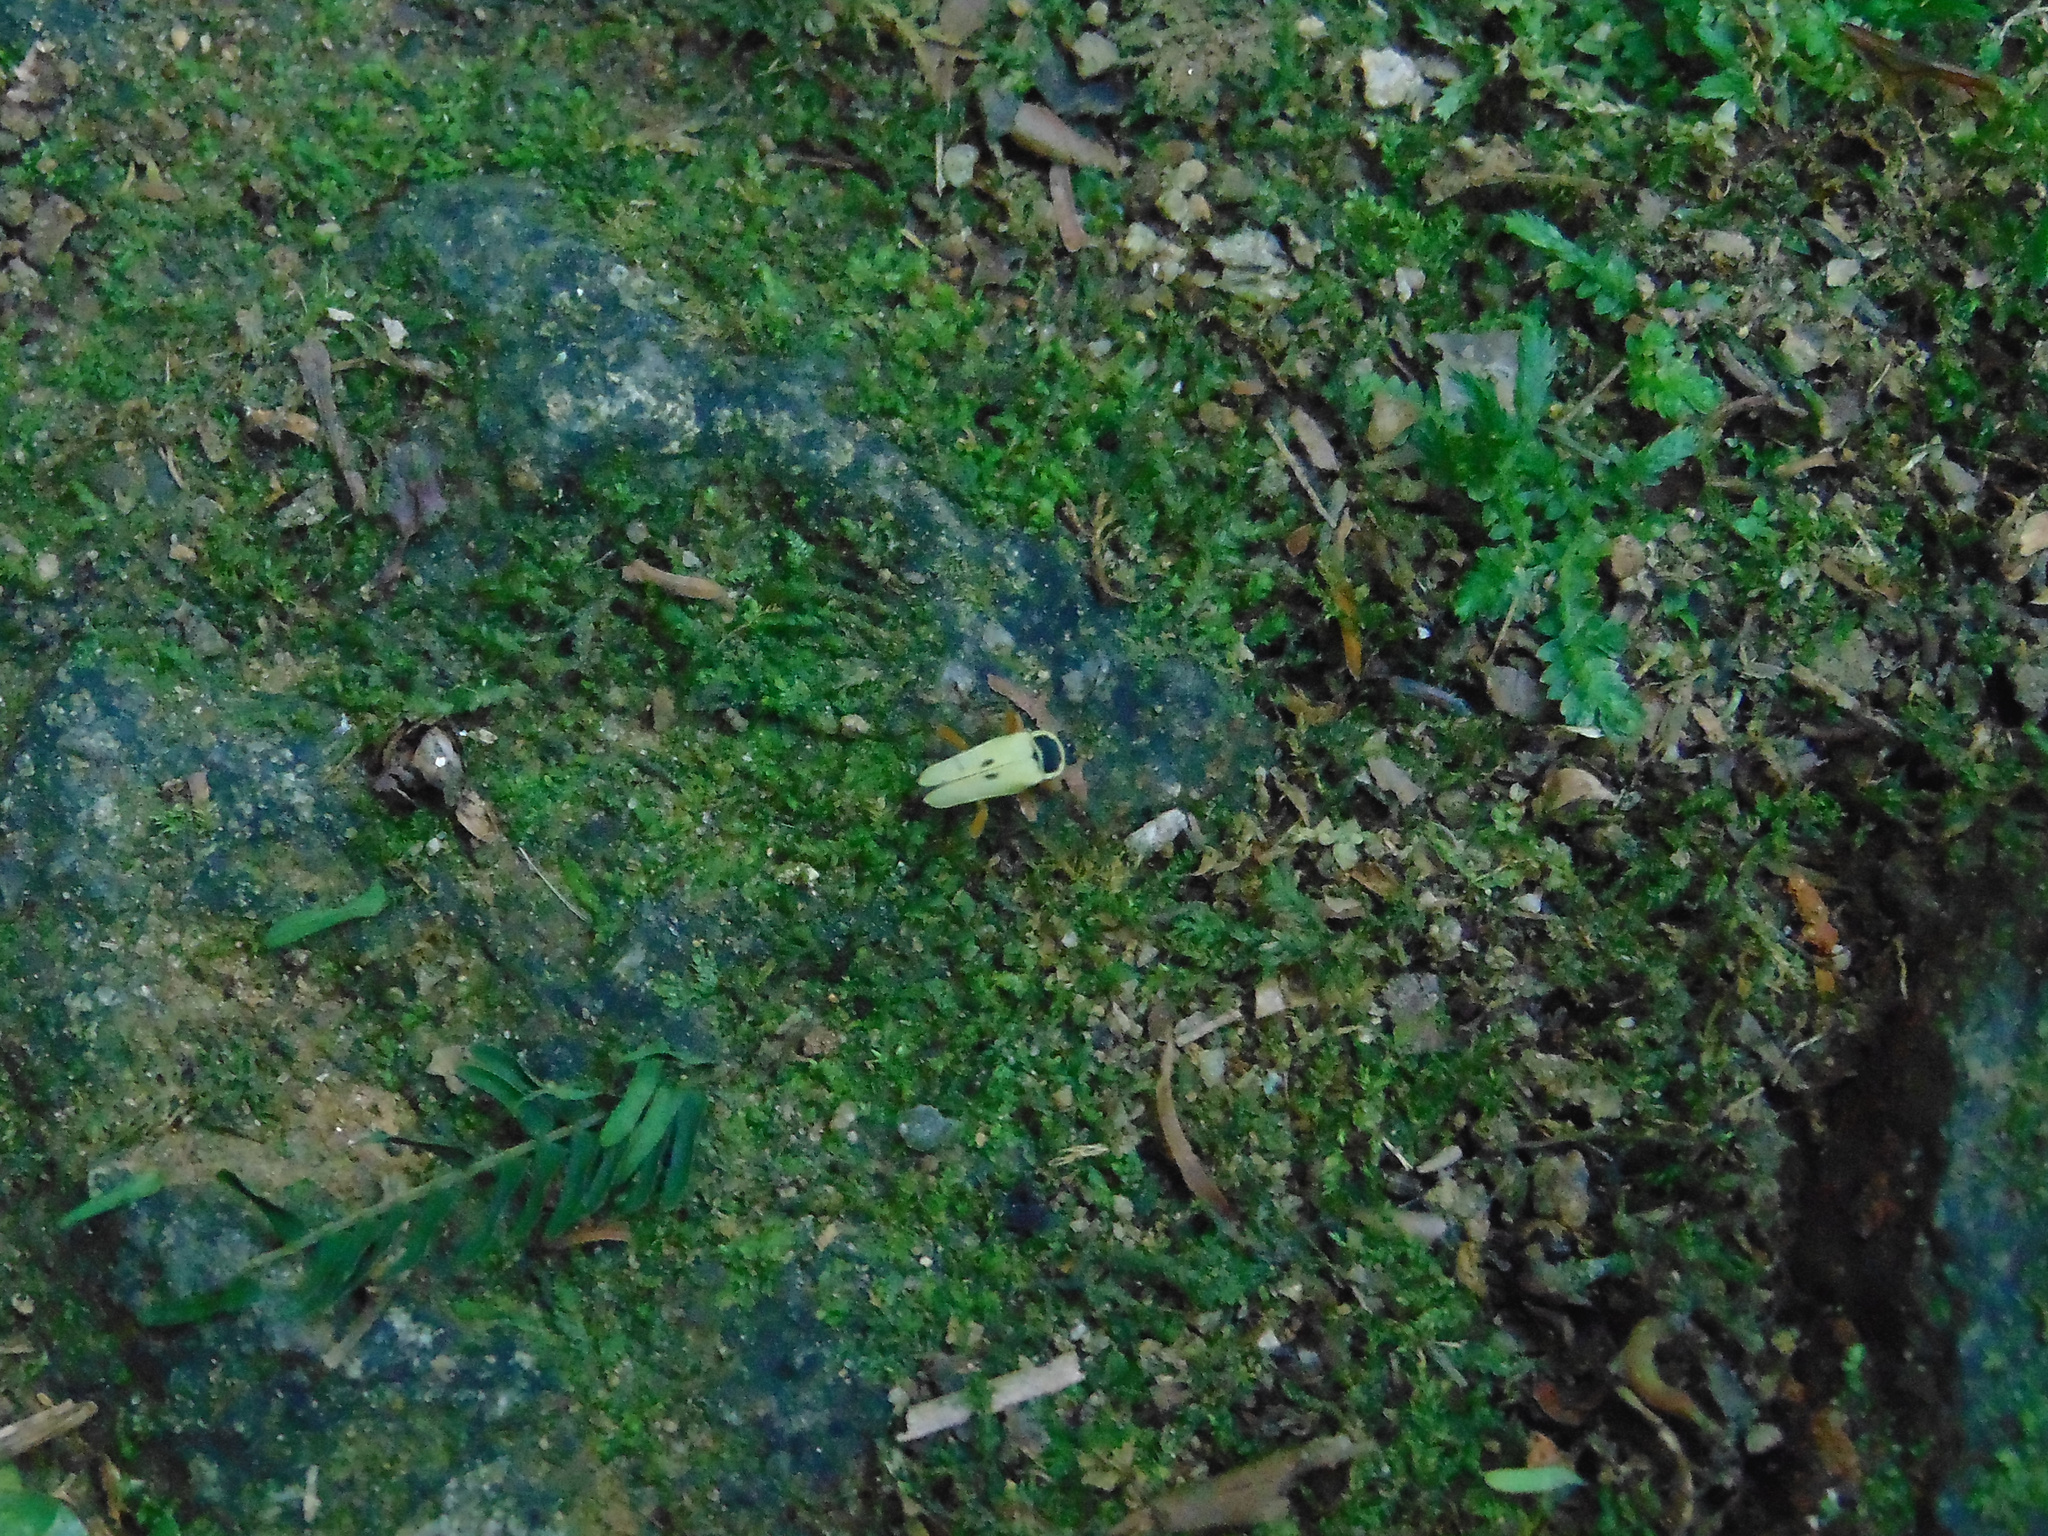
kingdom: Animalia
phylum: Arthropoda
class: Insecta
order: Coleoptera
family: Cantharidae
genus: Chauliognathus
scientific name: Chauliognathus
